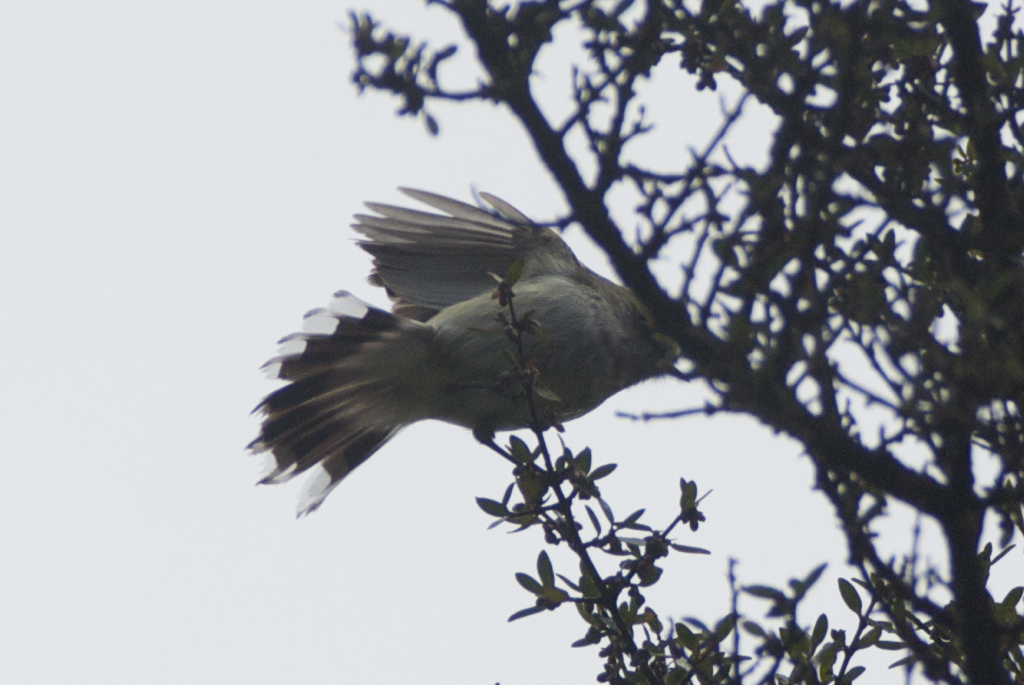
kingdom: Animalia
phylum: Chordata
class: Aves
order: Passeriformes
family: Acanthizidae
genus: Gerygone
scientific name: Gerygone igata
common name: Grey gerygone
